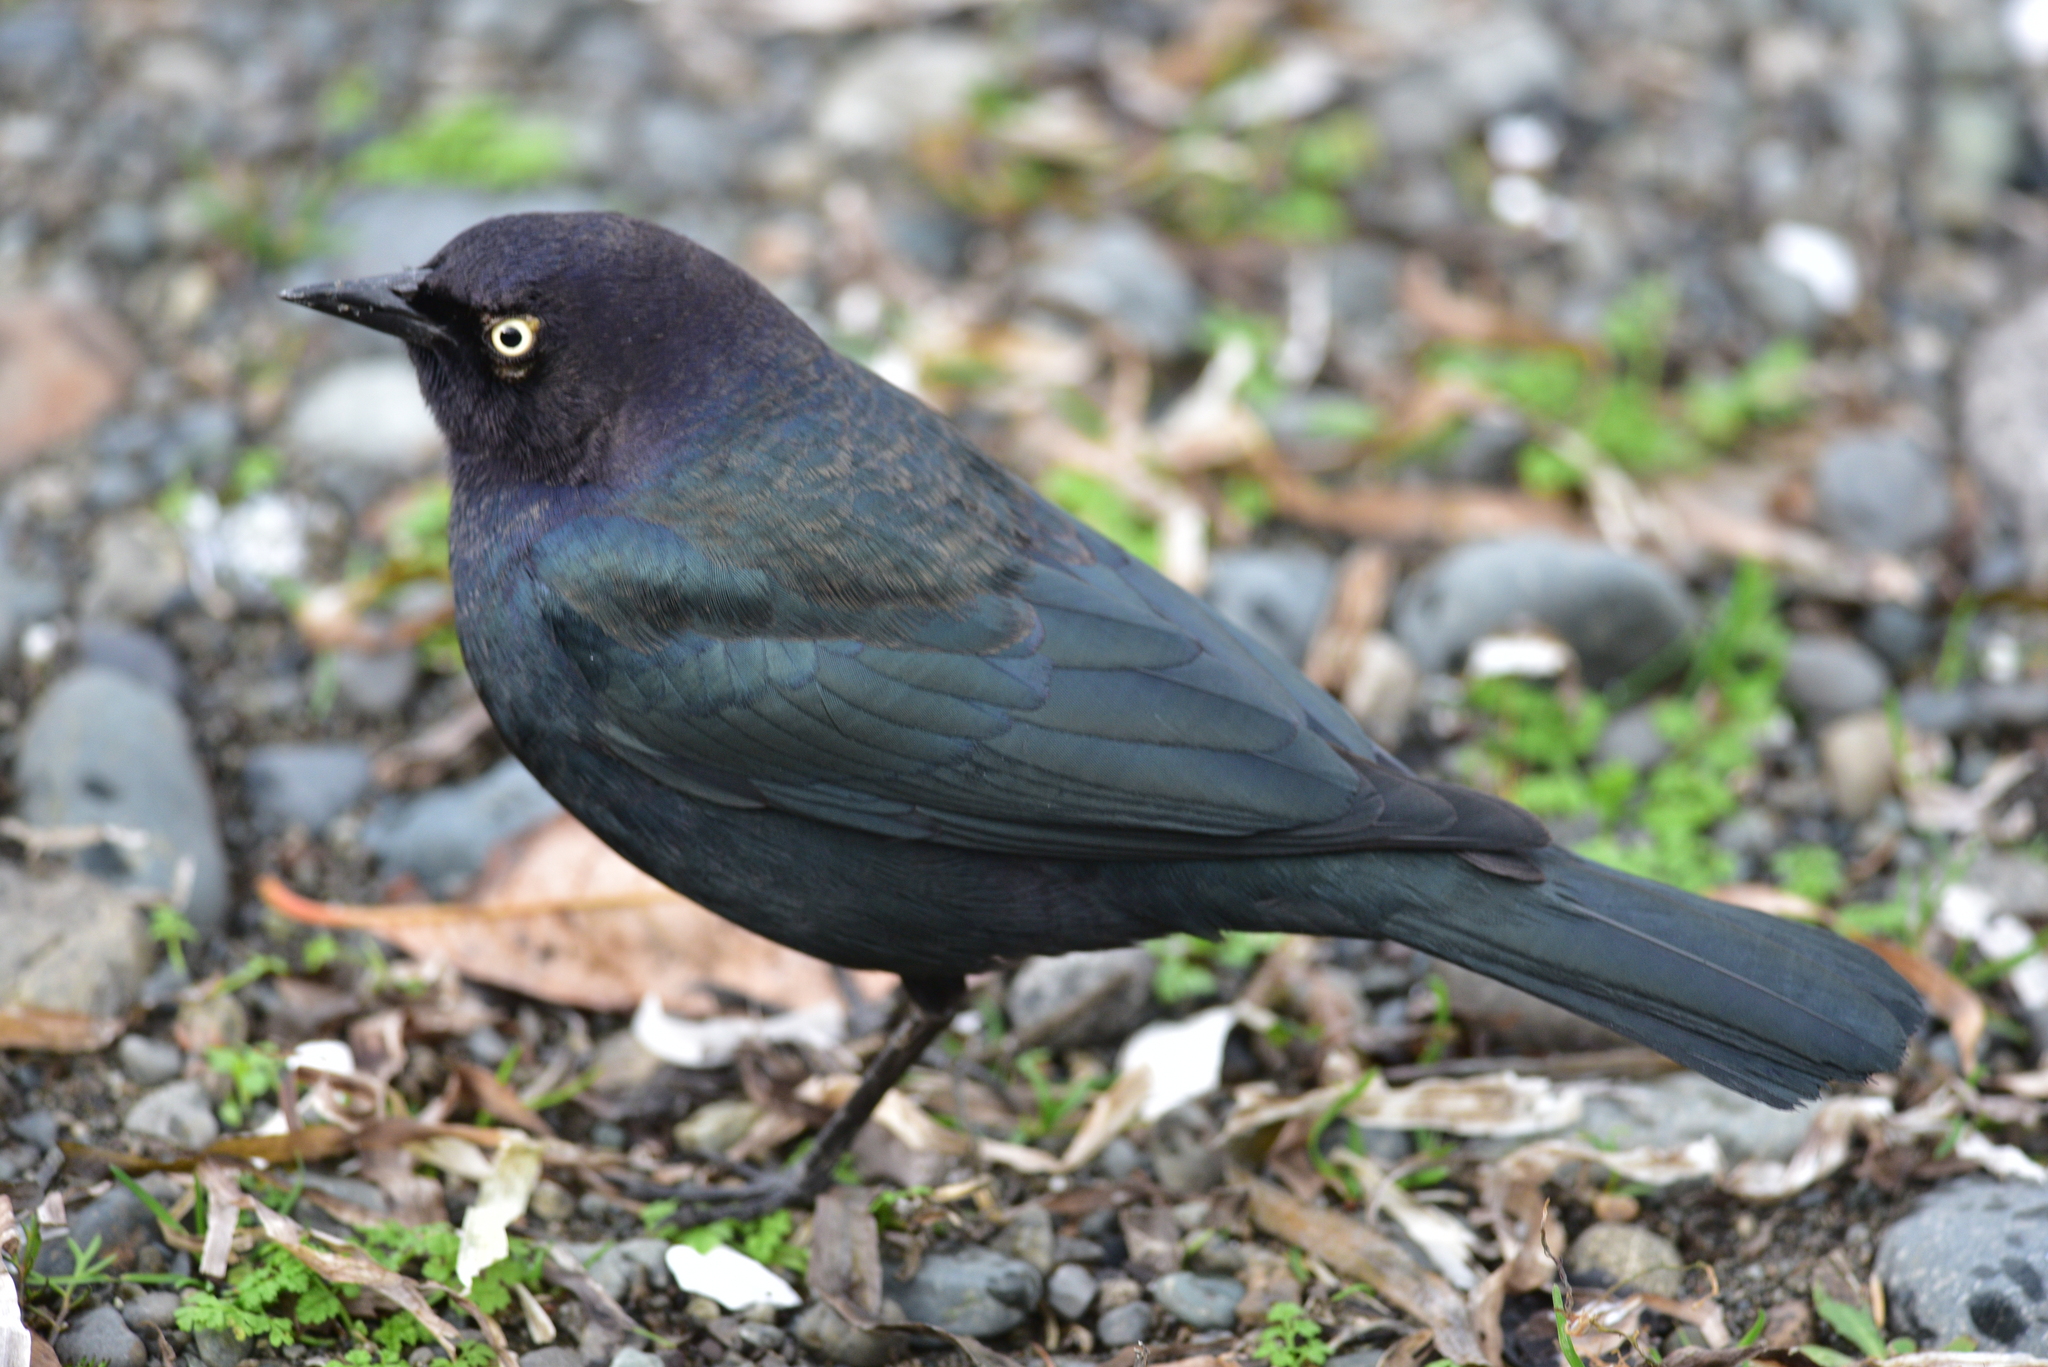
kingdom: Animalia
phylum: Chordata
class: Aves
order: Passeriformes
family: Icteridae
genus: Euphagus
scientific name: Euphagus cyanocephalus
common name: Brewer's blackbird
